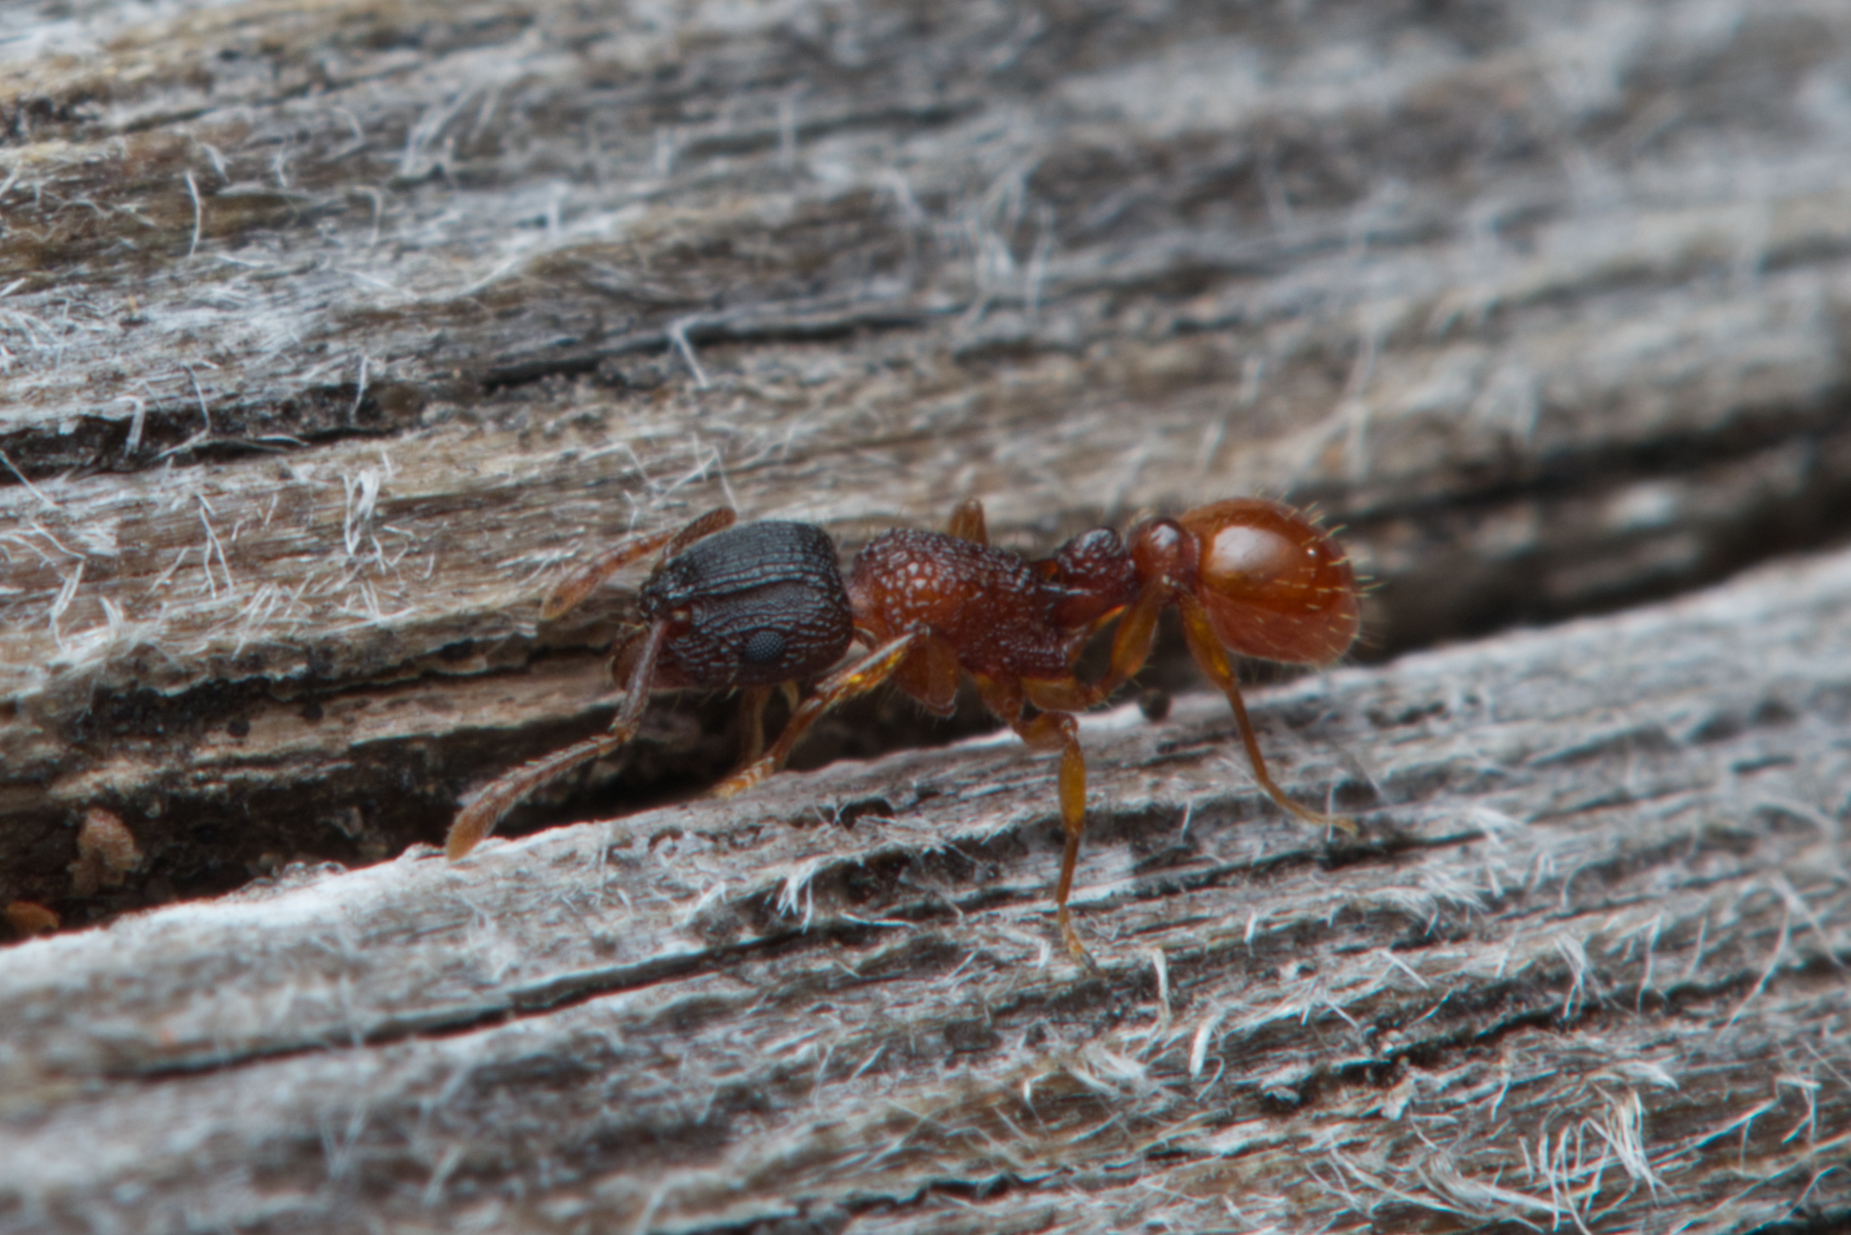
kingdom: Animalia
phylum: Arthropoda
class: Insecta
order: Hymenoptera
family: Formicidae
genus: Tetramorium
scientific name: Tetramorium fuscipes
